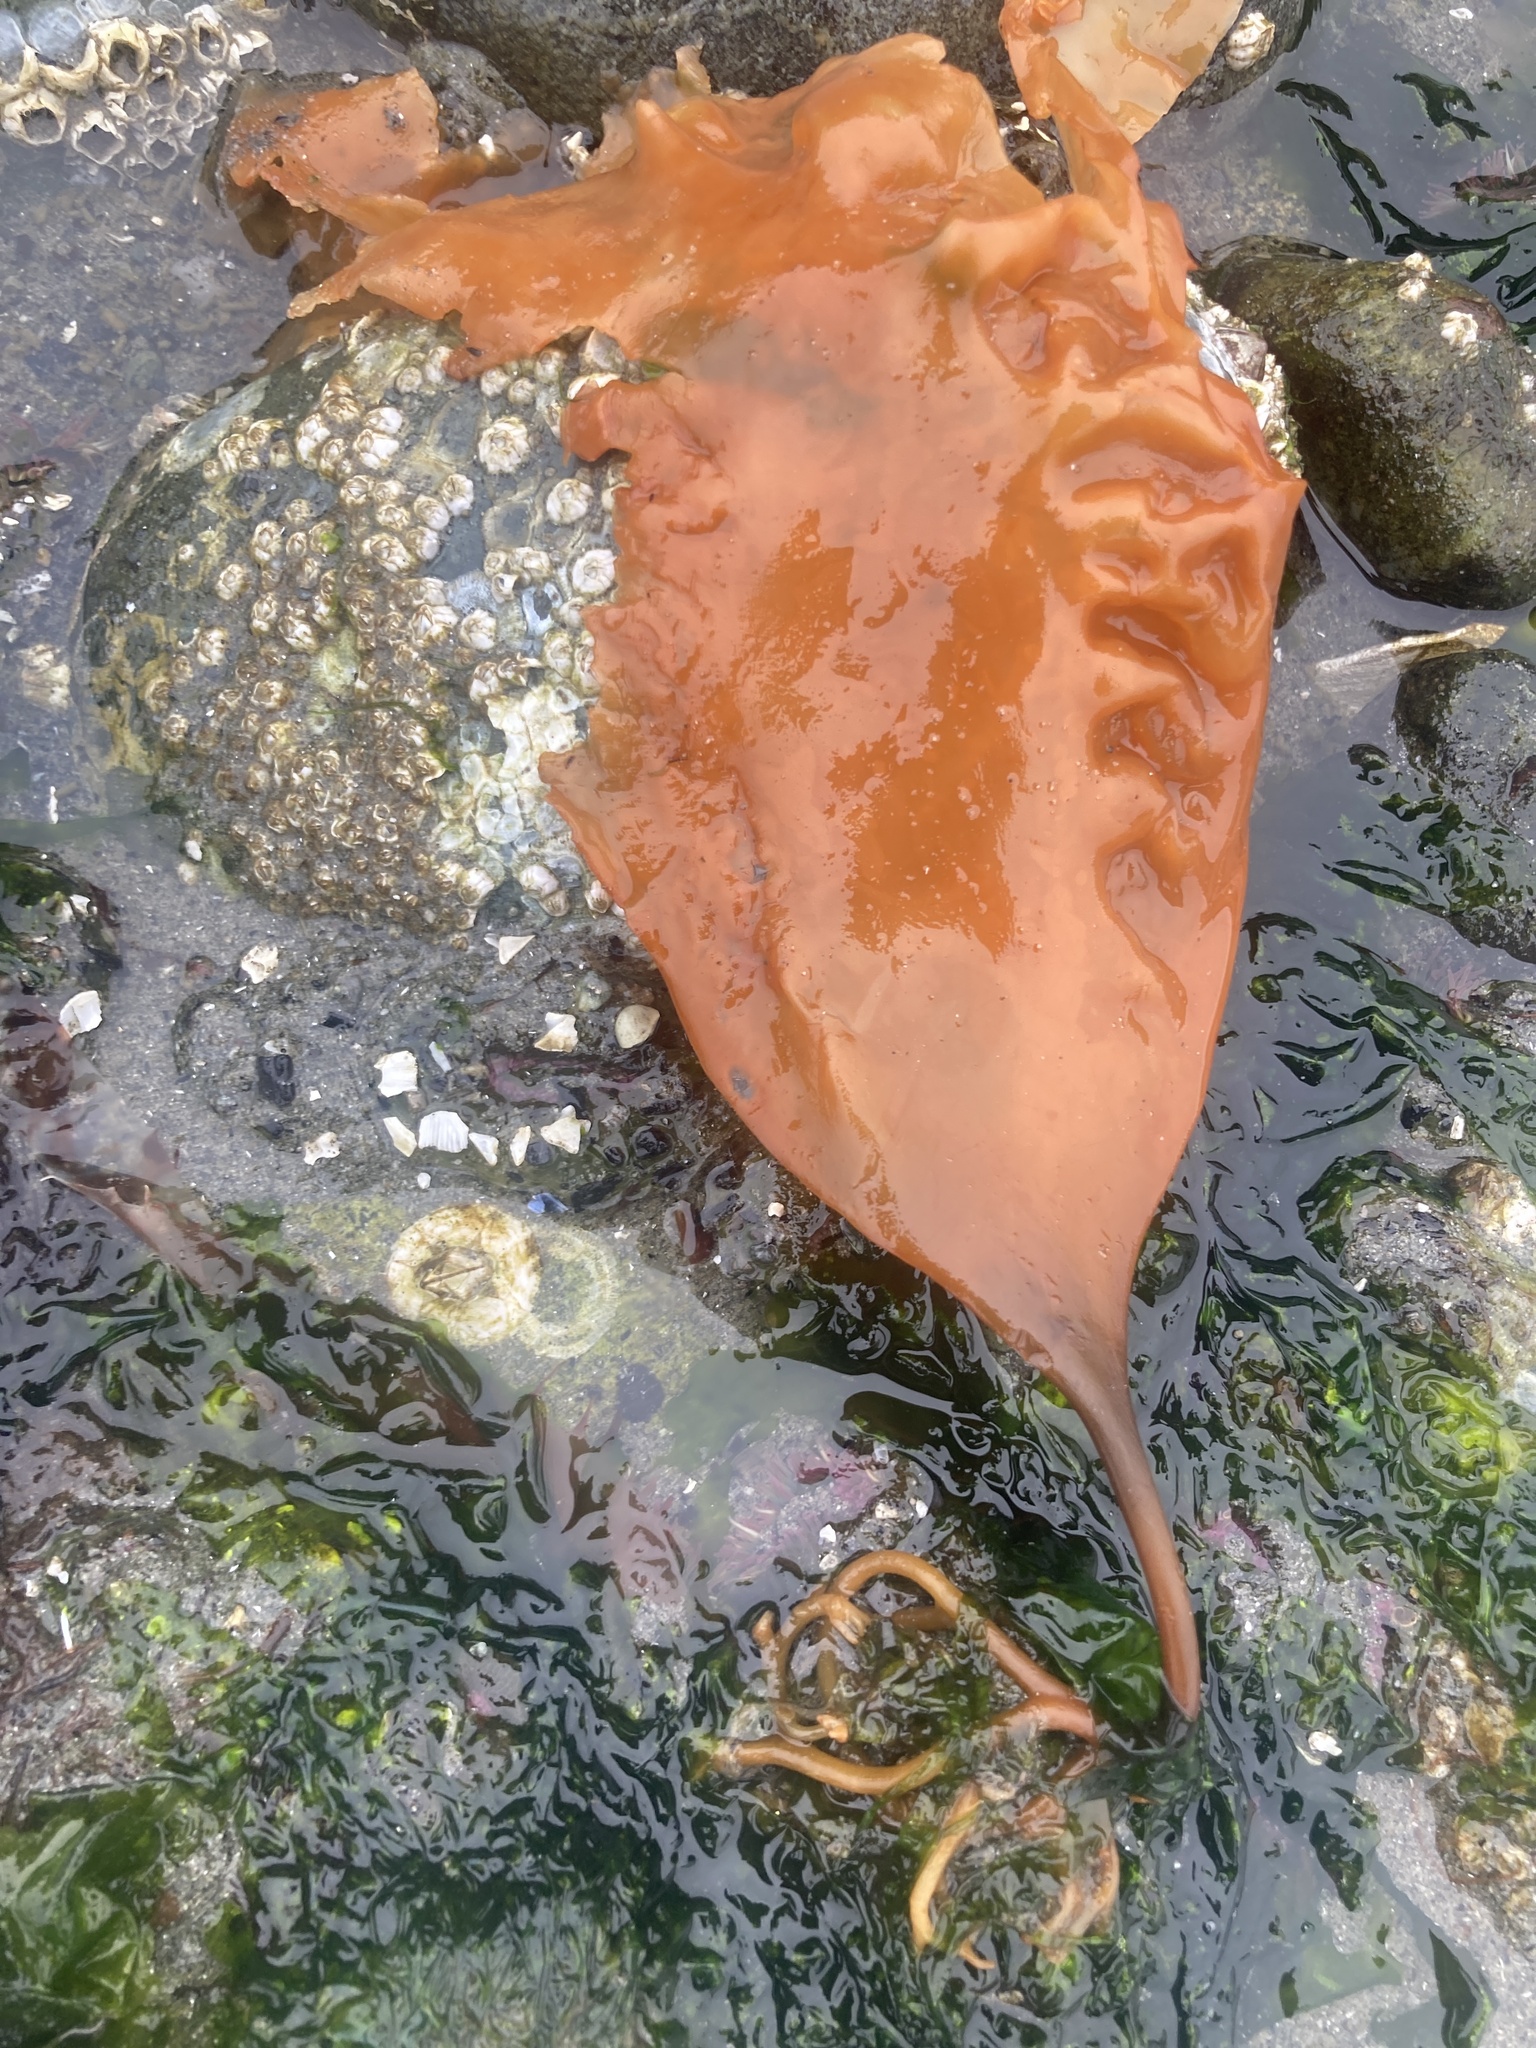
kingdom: Chromista
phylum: Ochrophyta
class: Phaeophyceae
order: Laminariales
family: Laminariaceae
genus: Saccharina
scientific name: Saccharina latissima
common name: Poor man's weather glass
